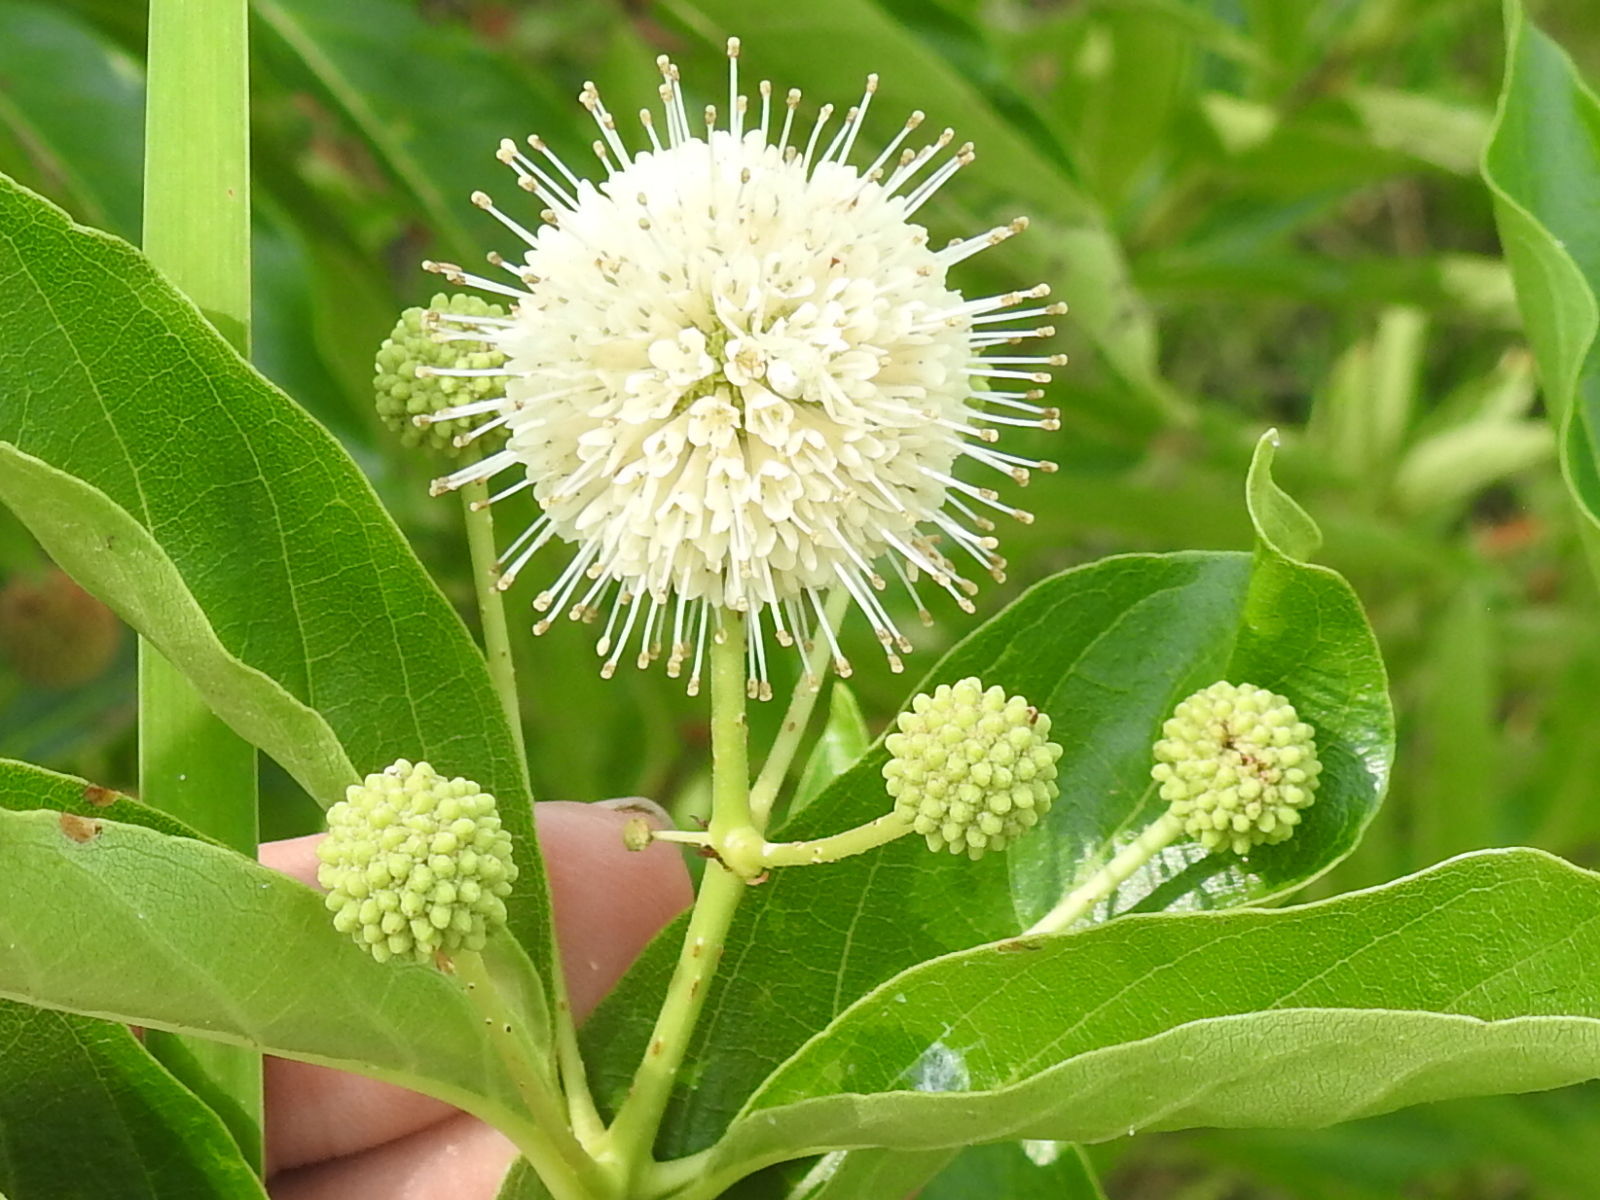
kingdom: Plantae
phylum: Tracheophyta
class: Magnoliopsida
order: Gentianales
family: Rubiaceae
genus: Cephalanthus
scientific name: Cephalanthus occidentalis
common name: Button-willow
